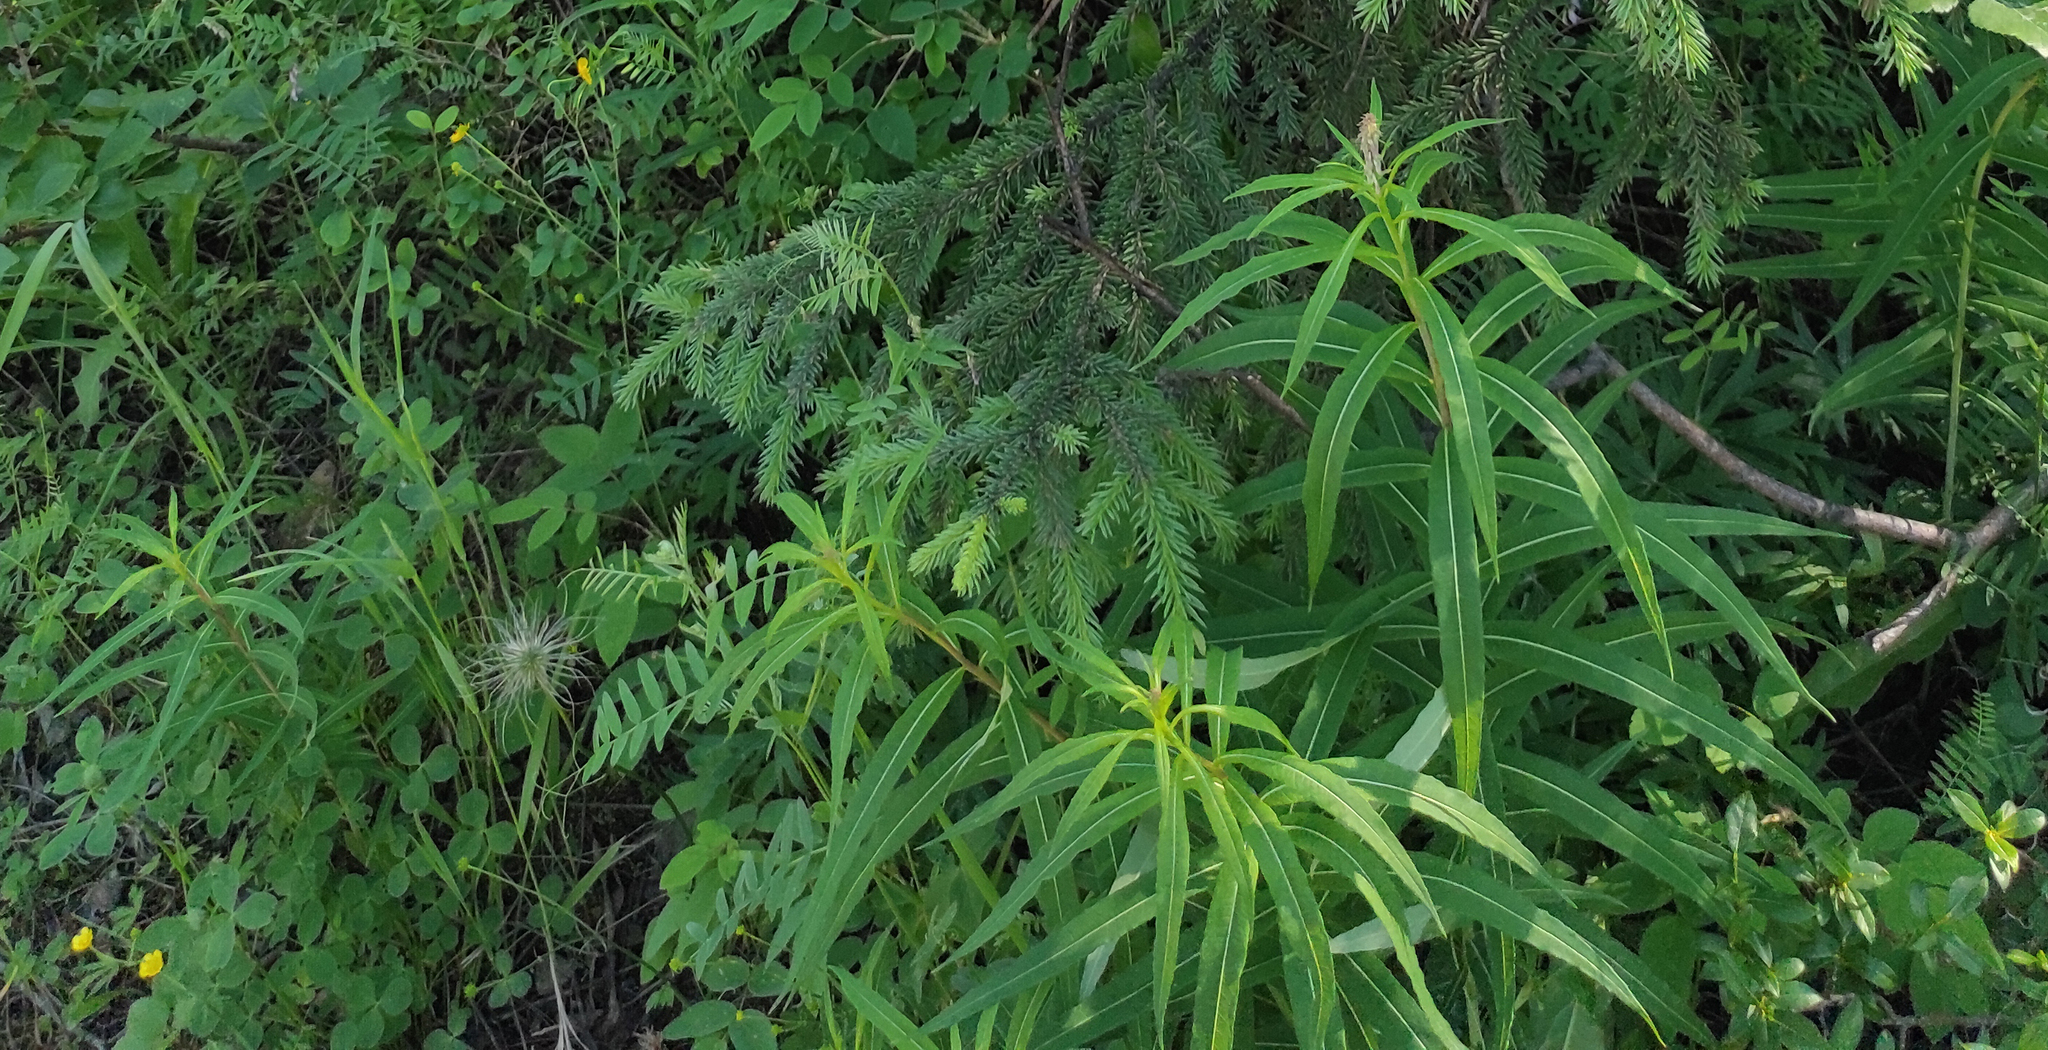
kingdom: Plantae
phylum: Tracheophyta
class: Magnoliopsida
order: Myrtales
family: Onagraceae
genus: Chamaenerion
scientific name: Chamaenerion angustifolium
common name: Fireweed
